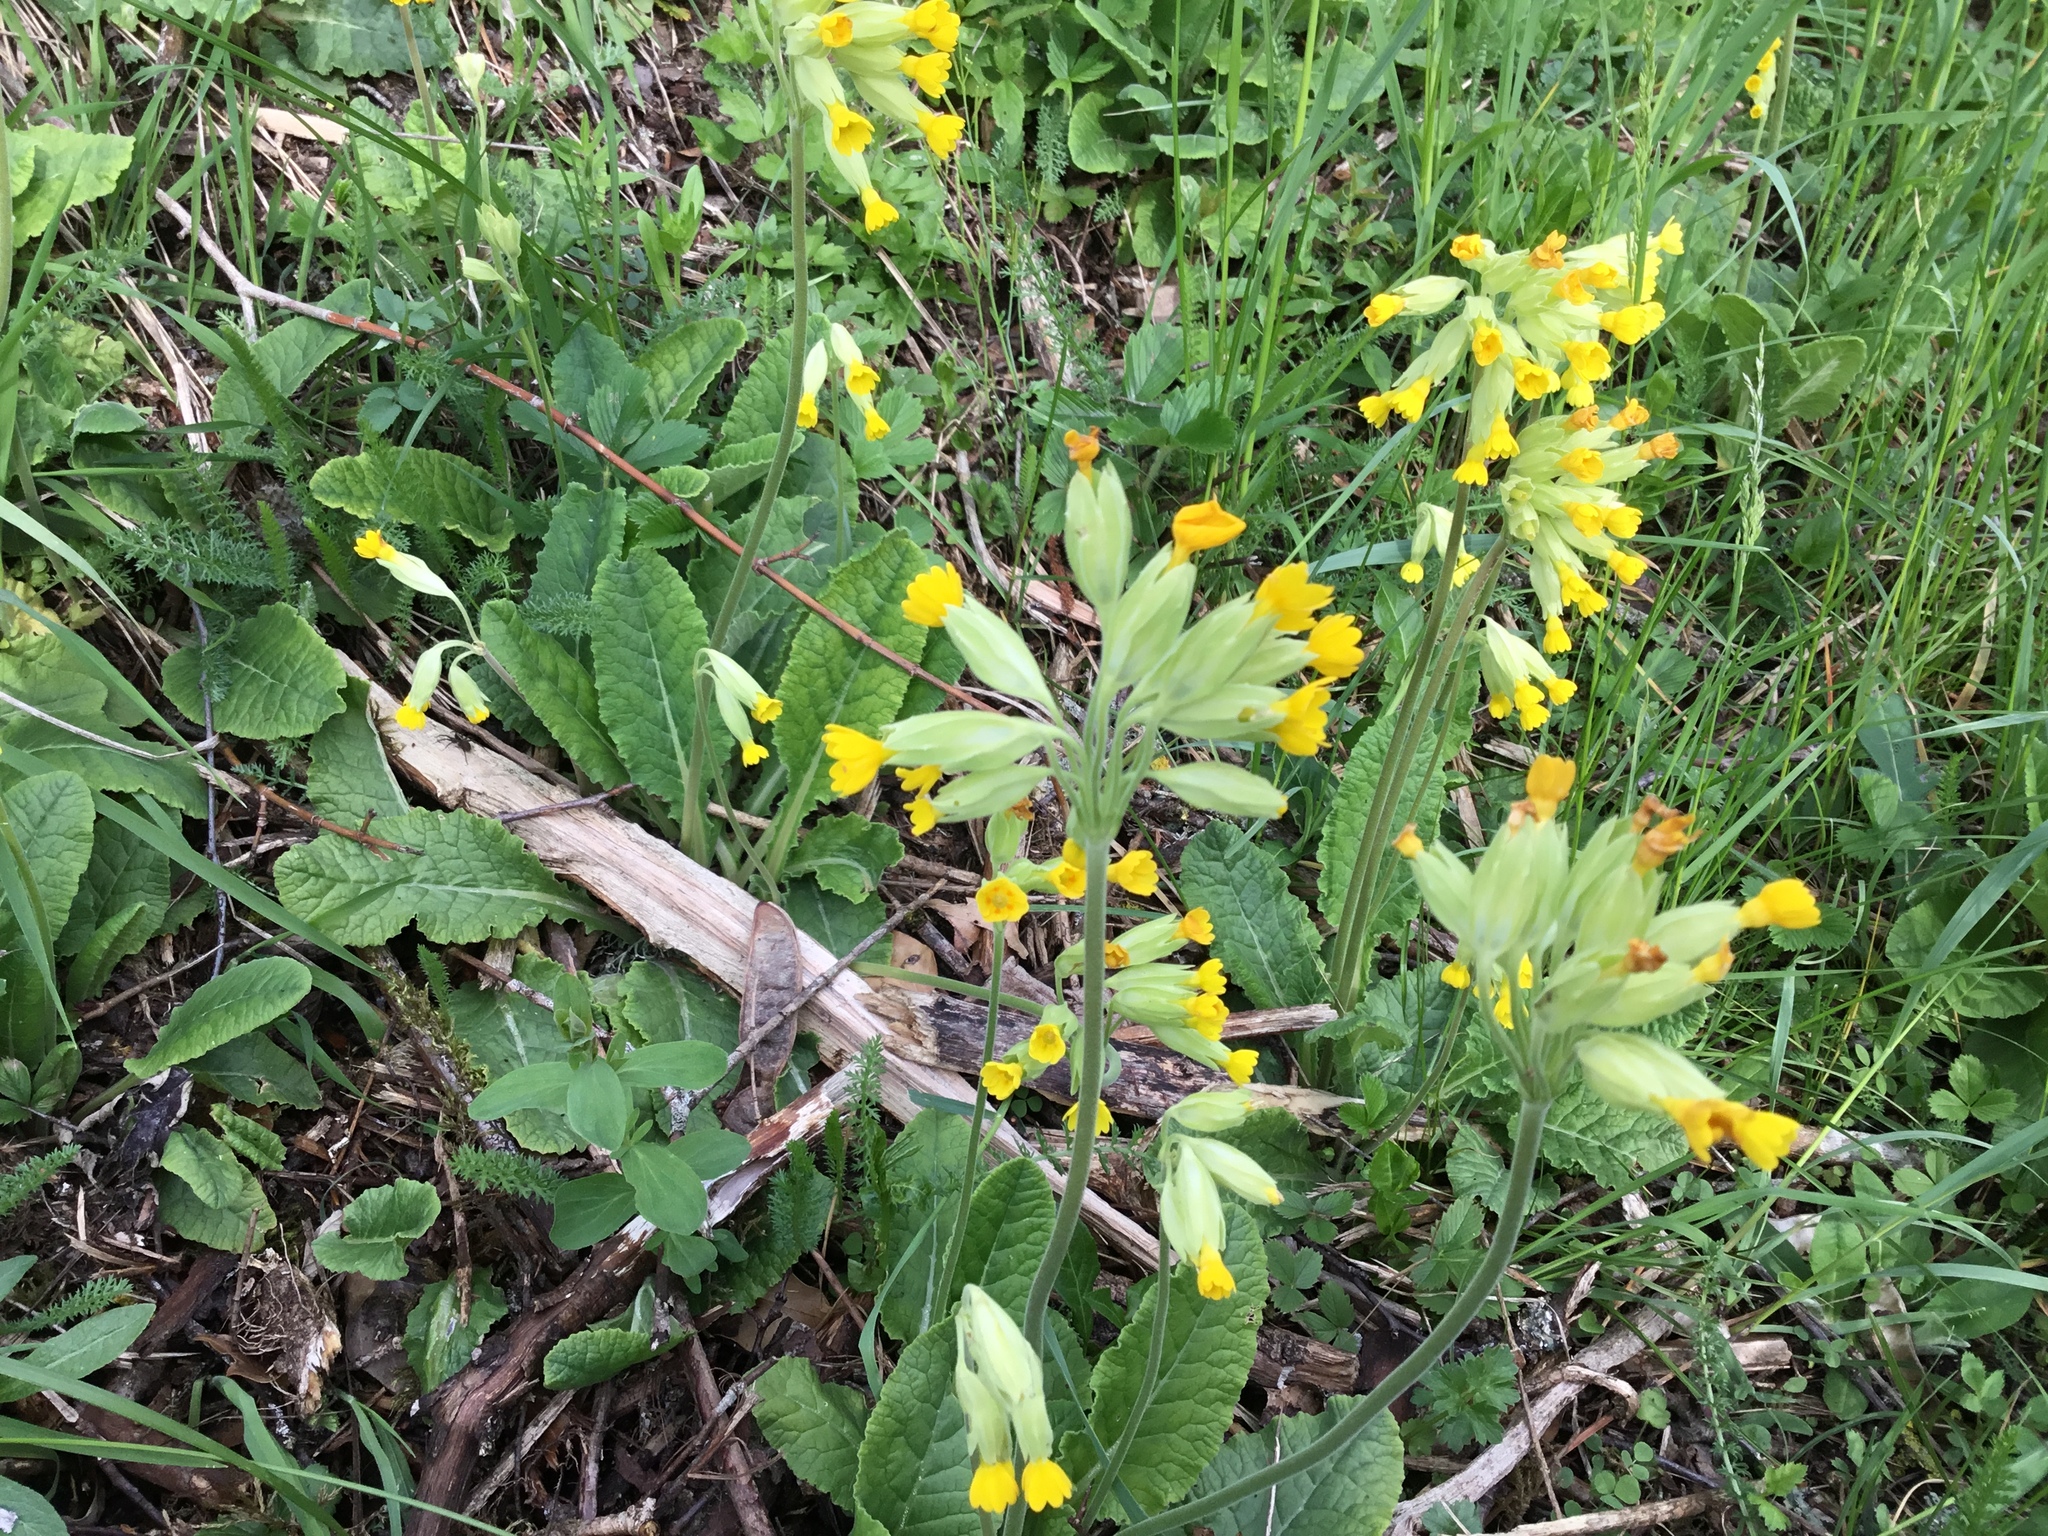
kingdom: Plantae
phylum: Tracheophyta
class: Magnoliopsida
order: Ericales
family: Primulaceae
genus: Primula
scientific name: Primula veris
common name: Cowslip
